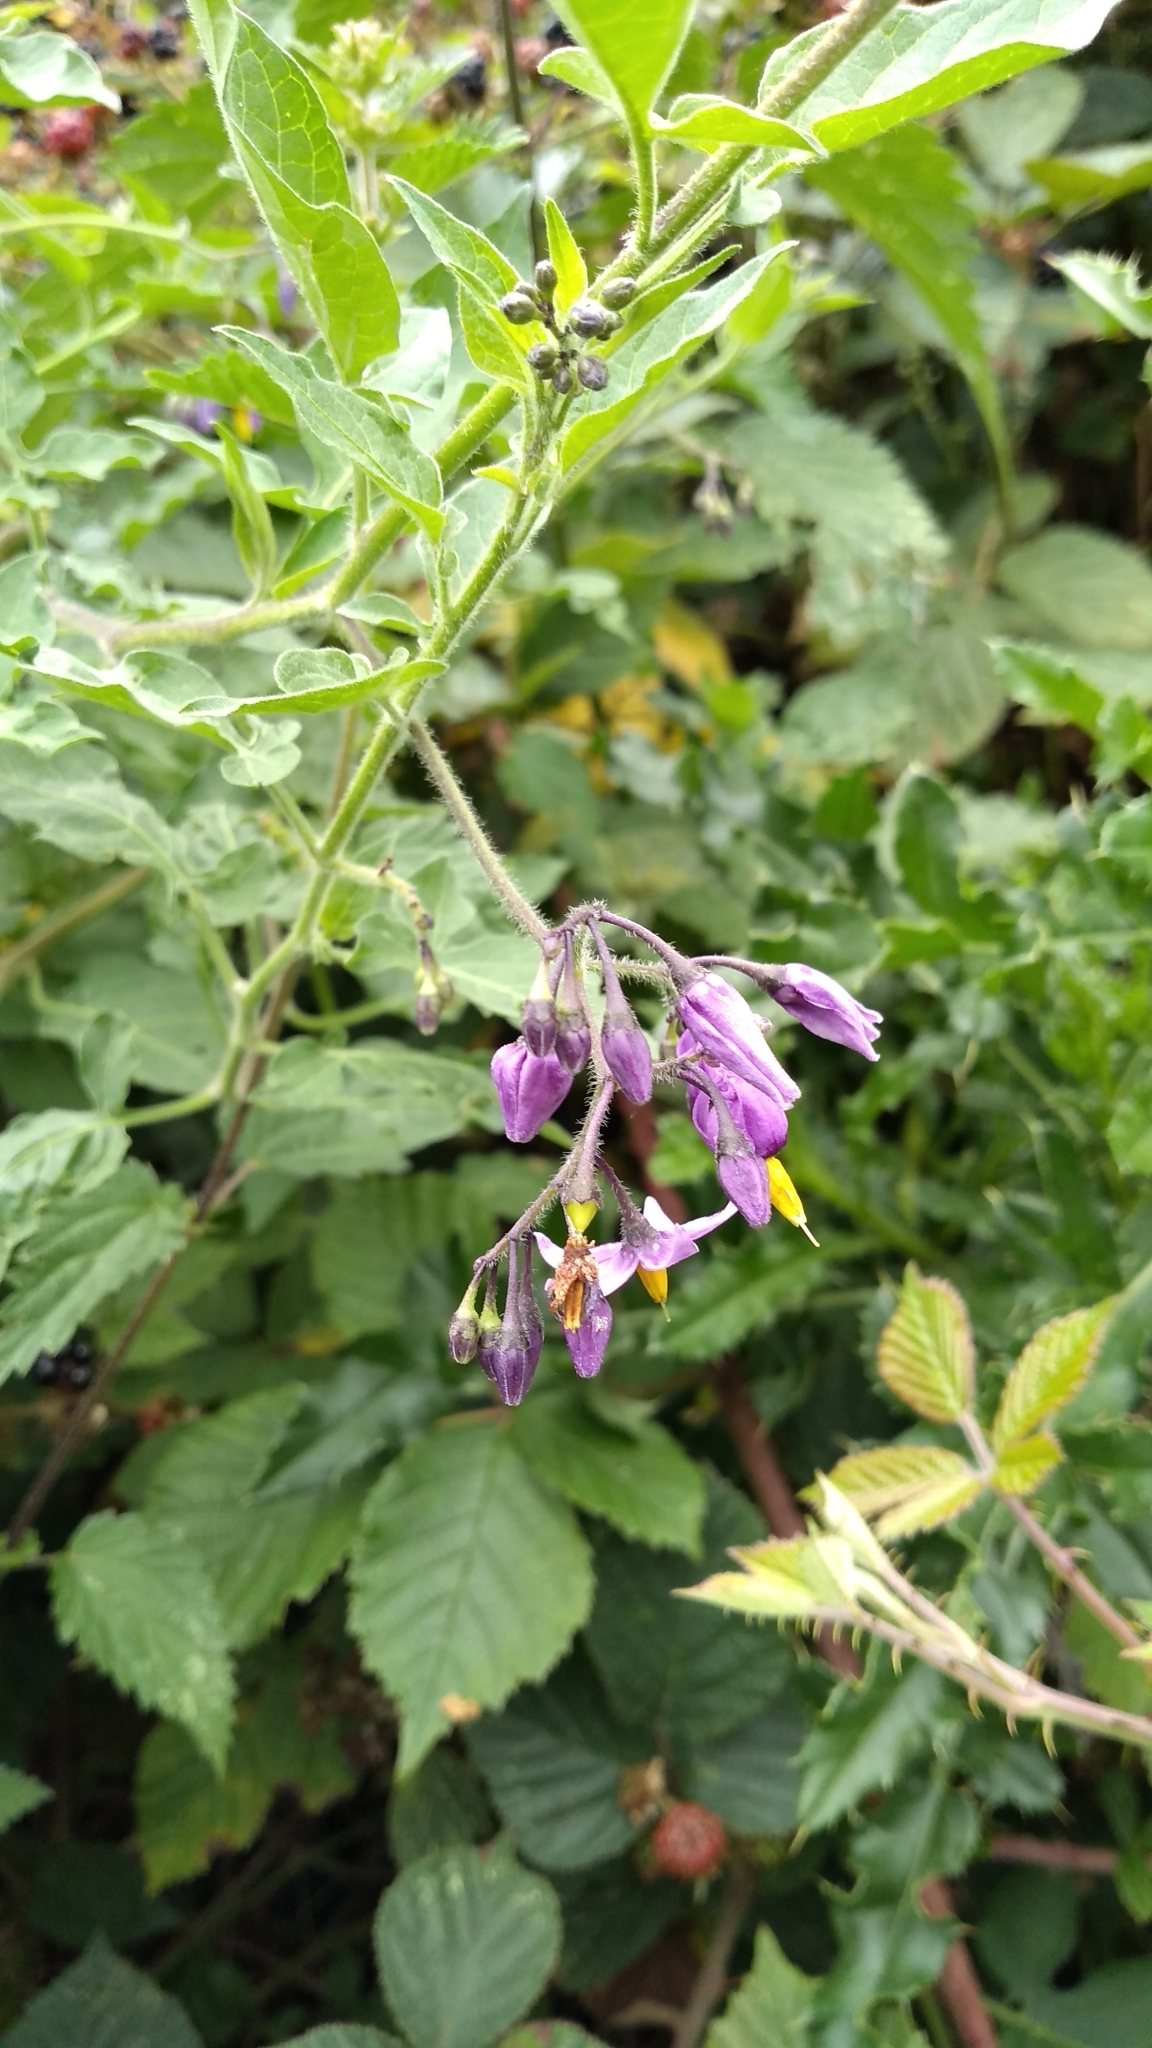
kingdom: Plantae
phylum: Tracheophyta
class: Magnoliopsida
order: Solanales
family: Solanaceae
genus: Solanum
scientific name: Solanum dulcamara
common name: Climbing nightshade
